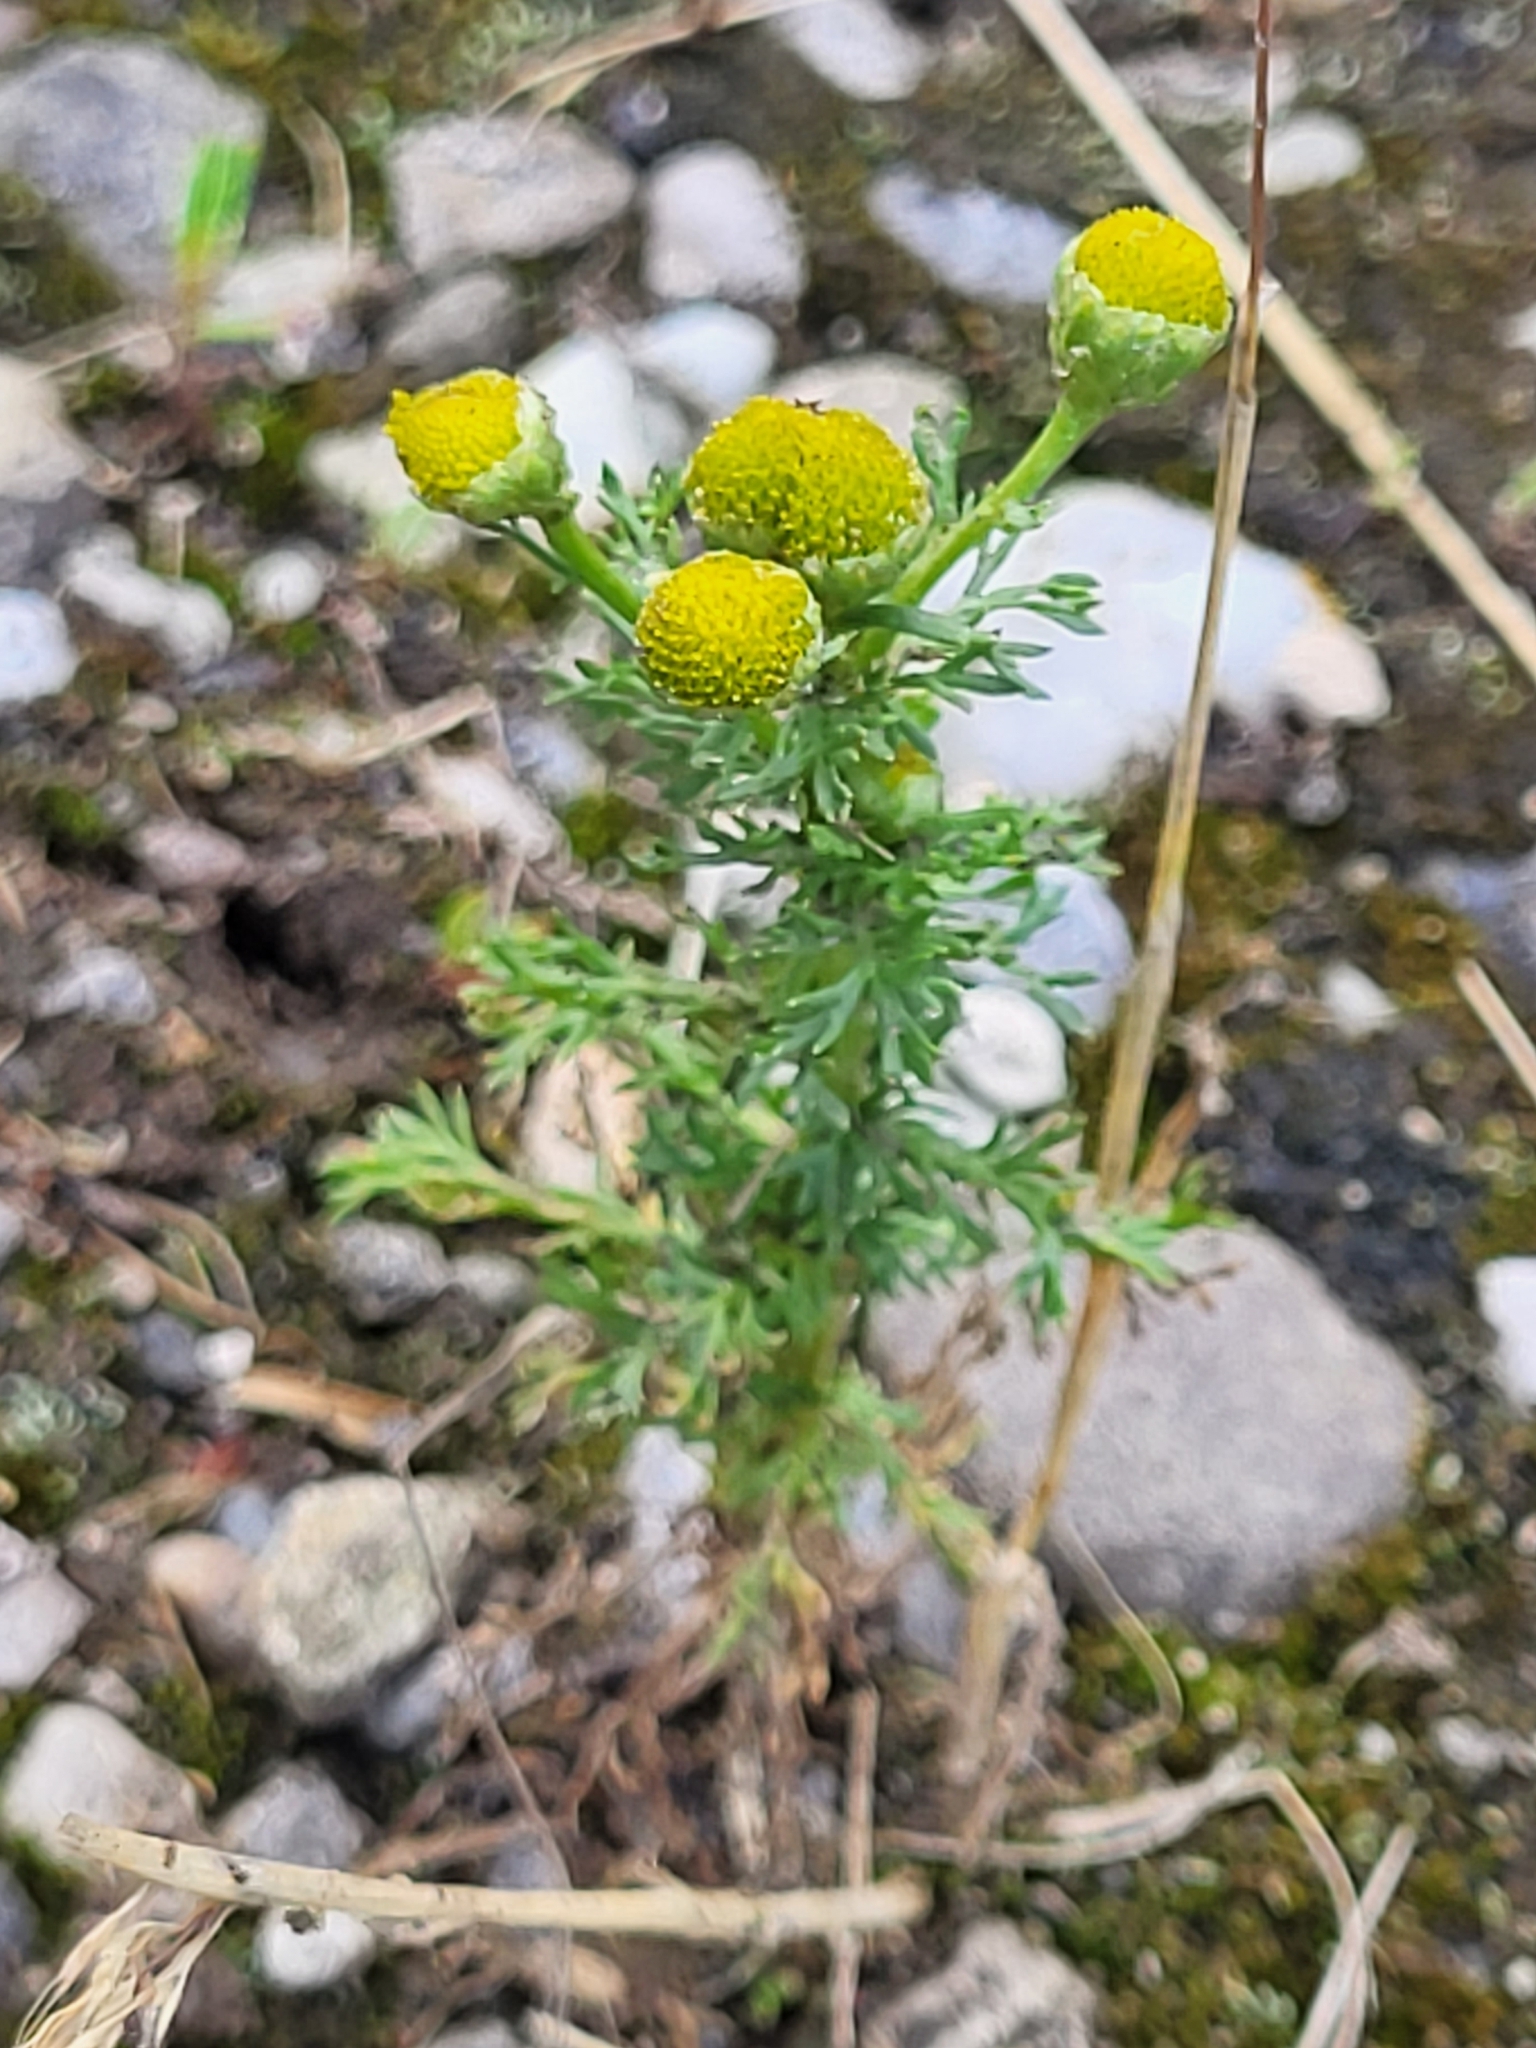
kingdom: Plantae
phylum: Tracheophyta
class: Magnoliopsida
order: Asterales
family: Asteraceae
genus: Matricaria
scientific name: Matricaria discoidea
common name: Disc mayweed
